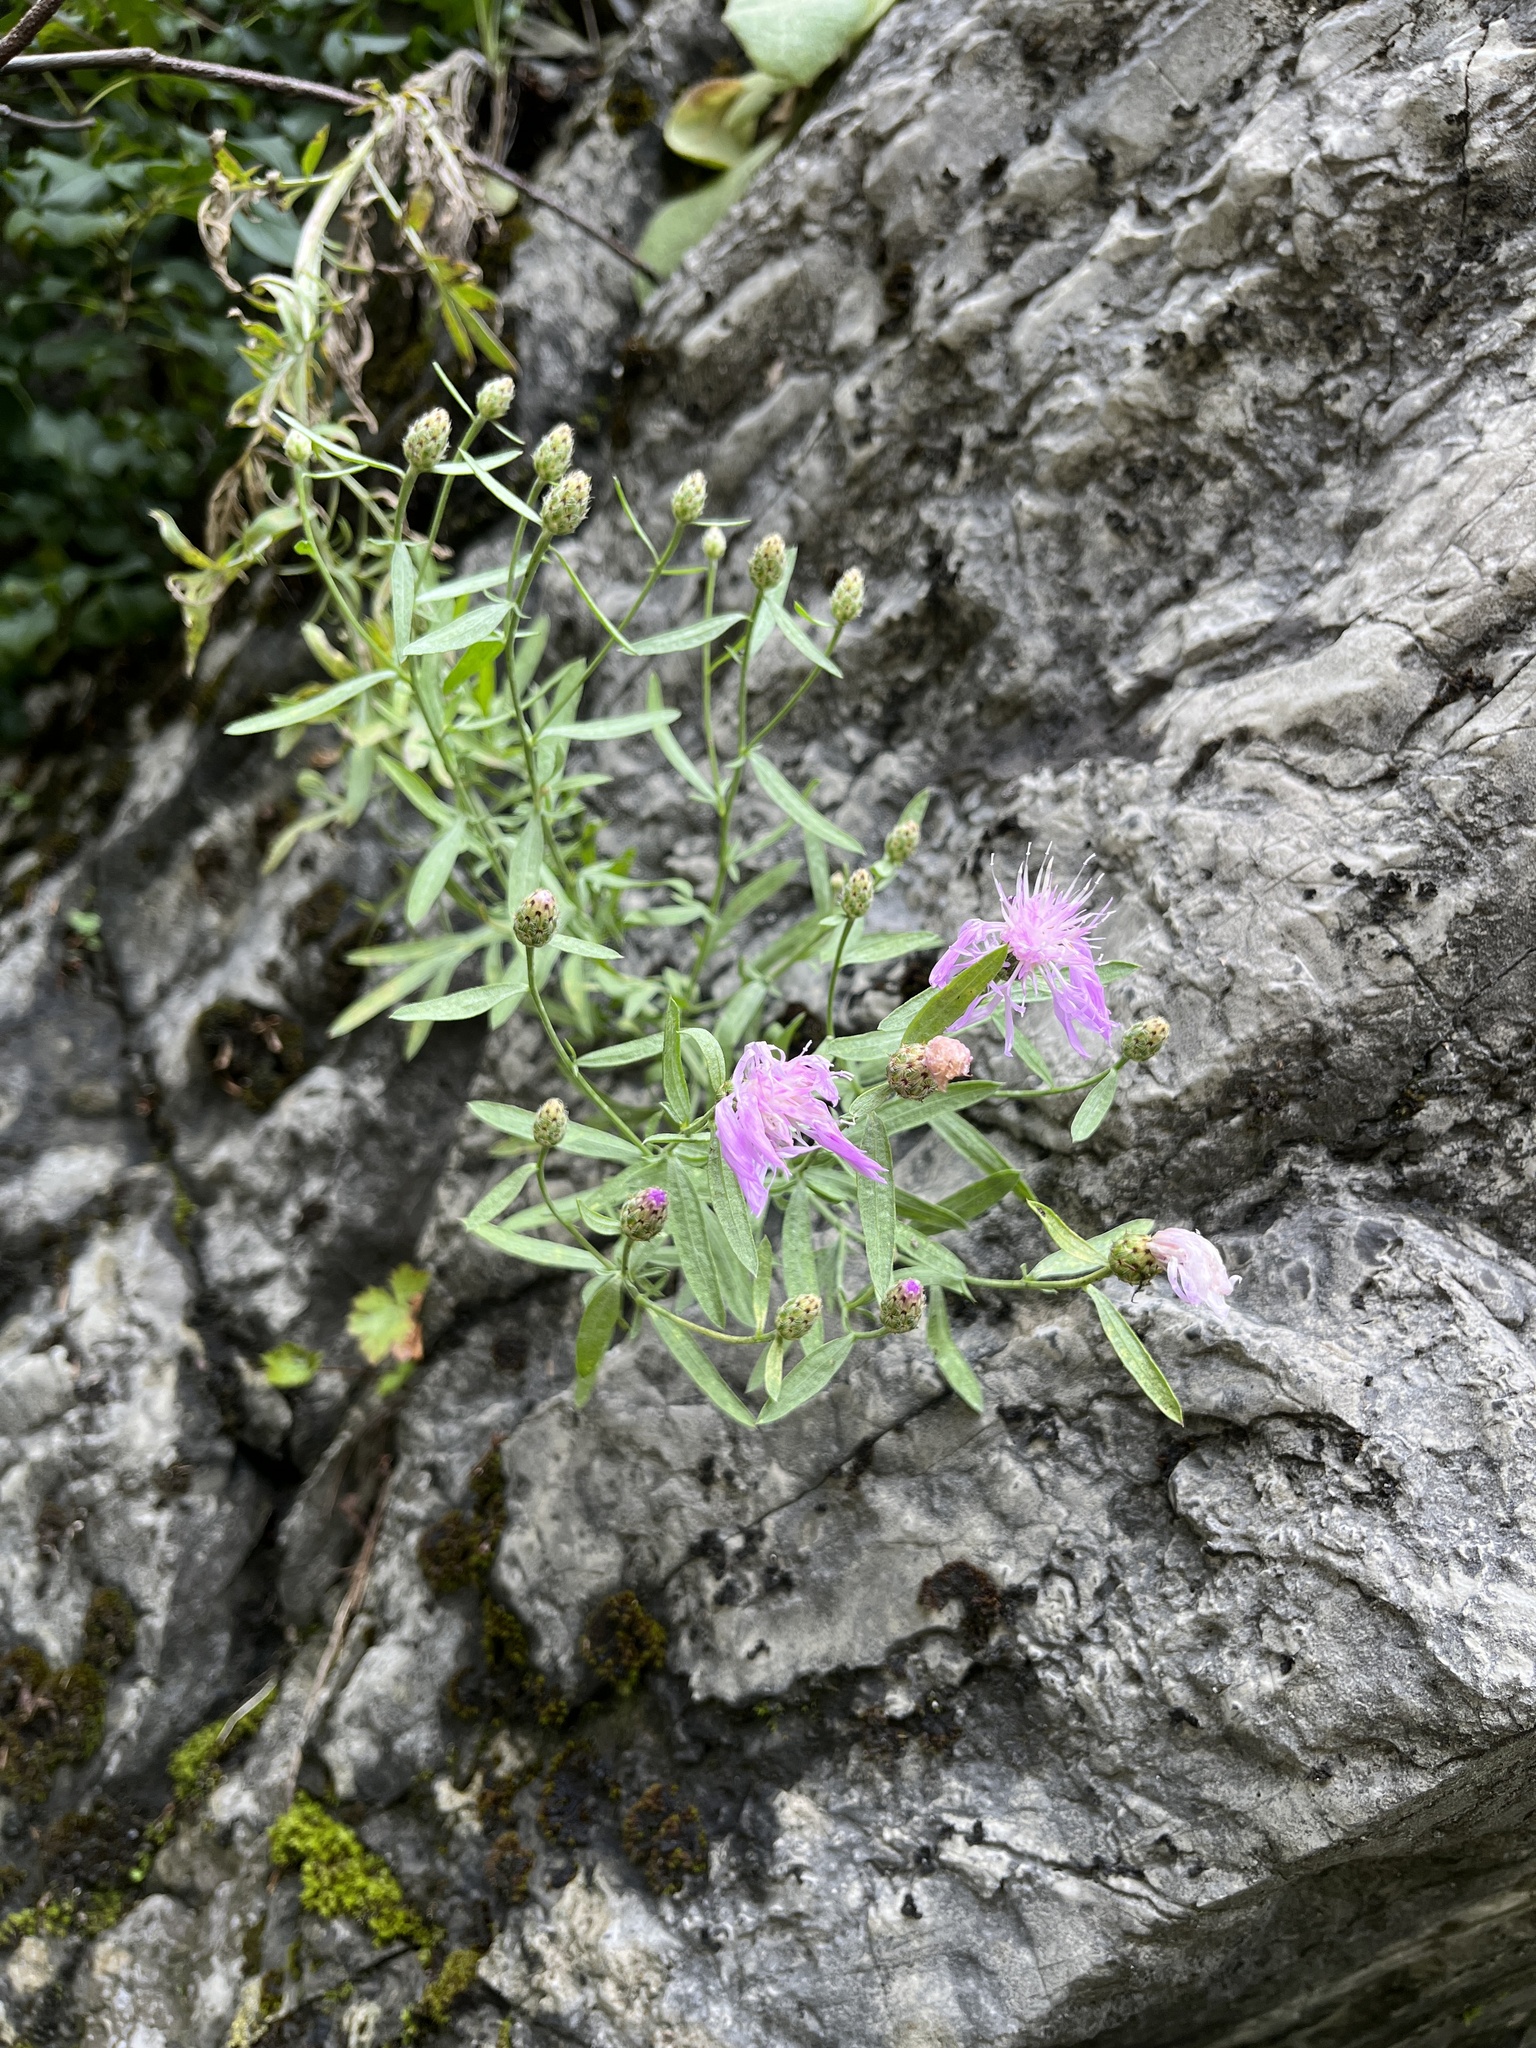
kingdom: Plantae
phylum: Tracheophyta
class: Magnoliopsida
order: Asterales
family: Asteraceae
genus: Centaurea
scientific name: Centaurea stoebe
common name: Spotted knapweed
